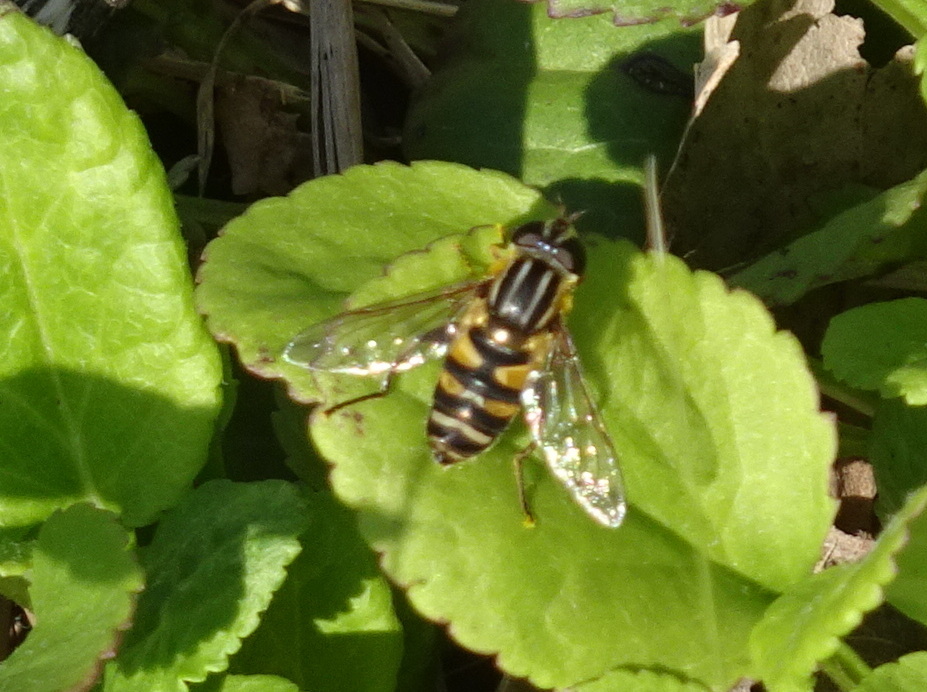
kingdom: Animalia
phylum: Arthropoda
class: Insecta
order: Diptera
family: Syrphidae
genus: Helophilus
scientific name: Helophilus fasciatus
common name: Narrow-headed marsh fly
